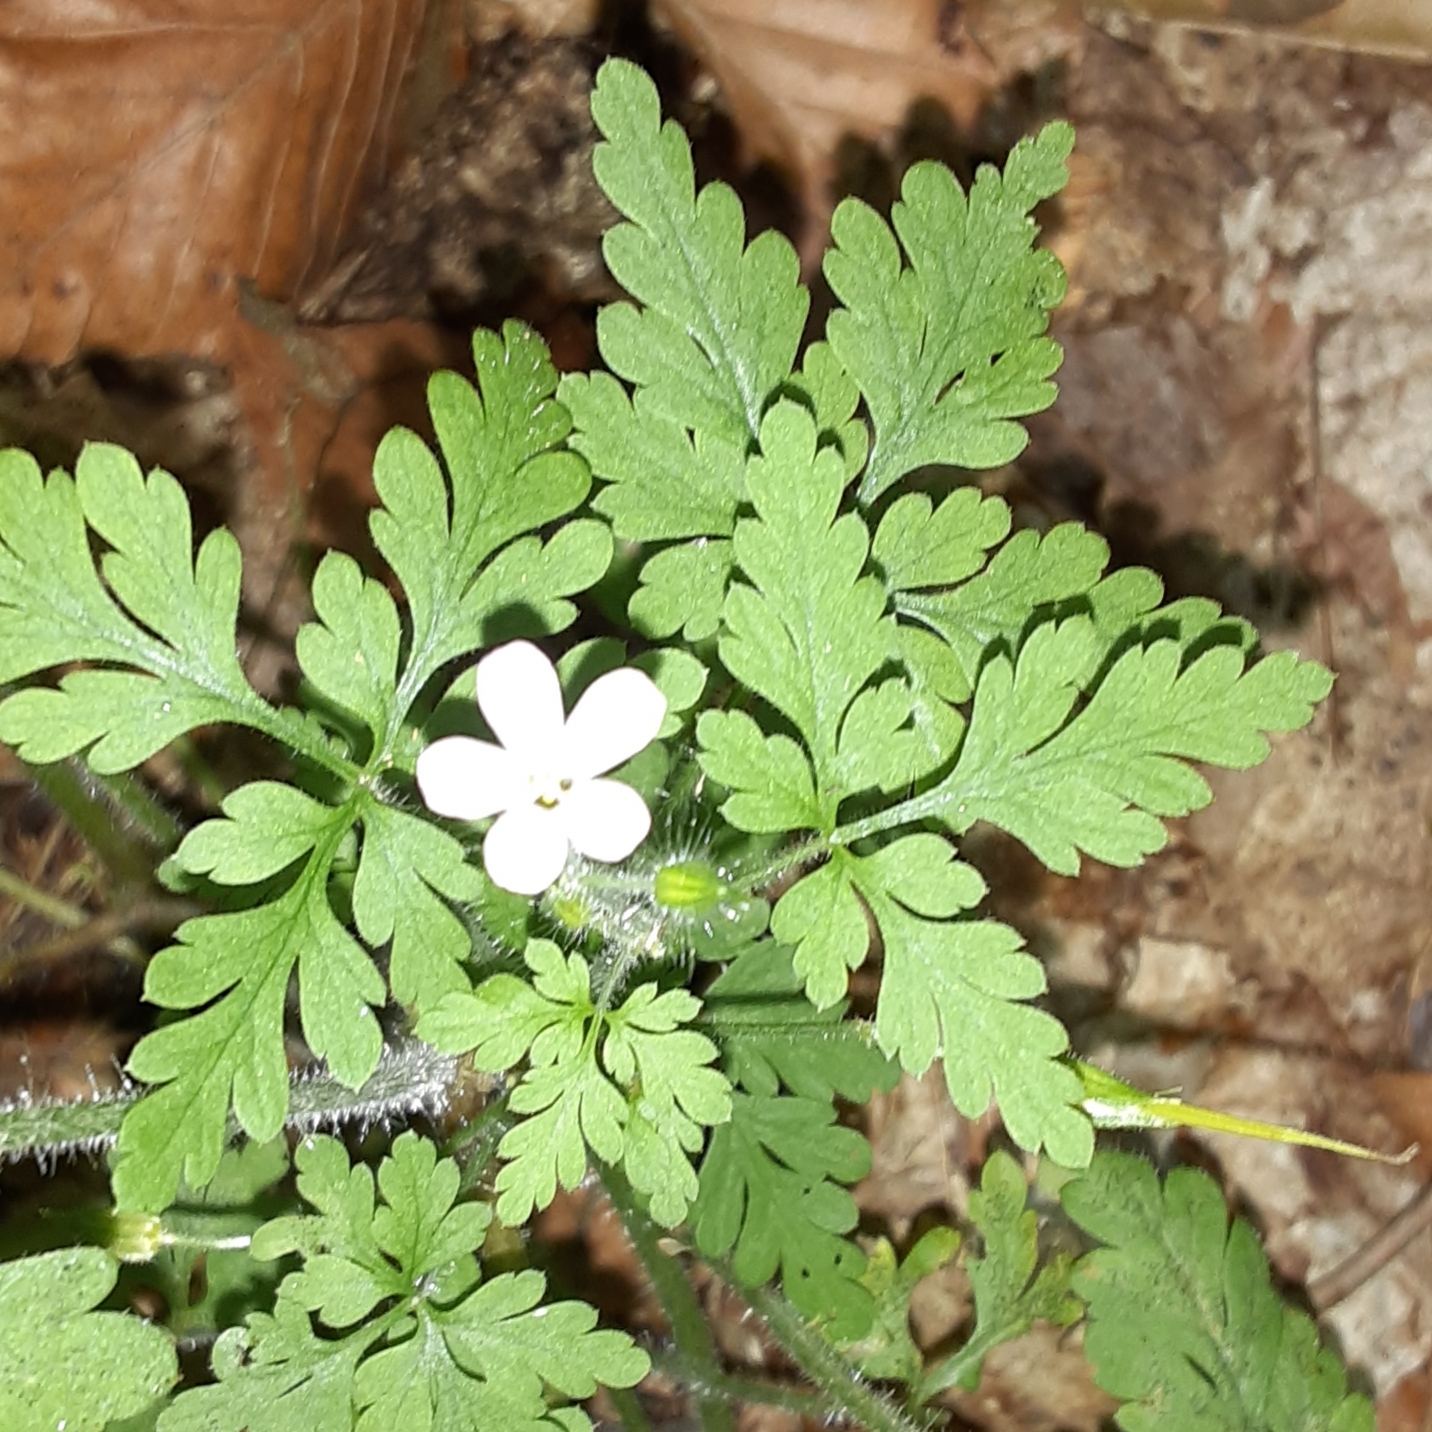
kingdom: Plantae
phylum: Tracheophyta
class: Magnoliopsida
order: Geraniales
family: Geraniaceae
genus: Geranium
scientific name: Geranium robertianum
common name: Herb-robert
